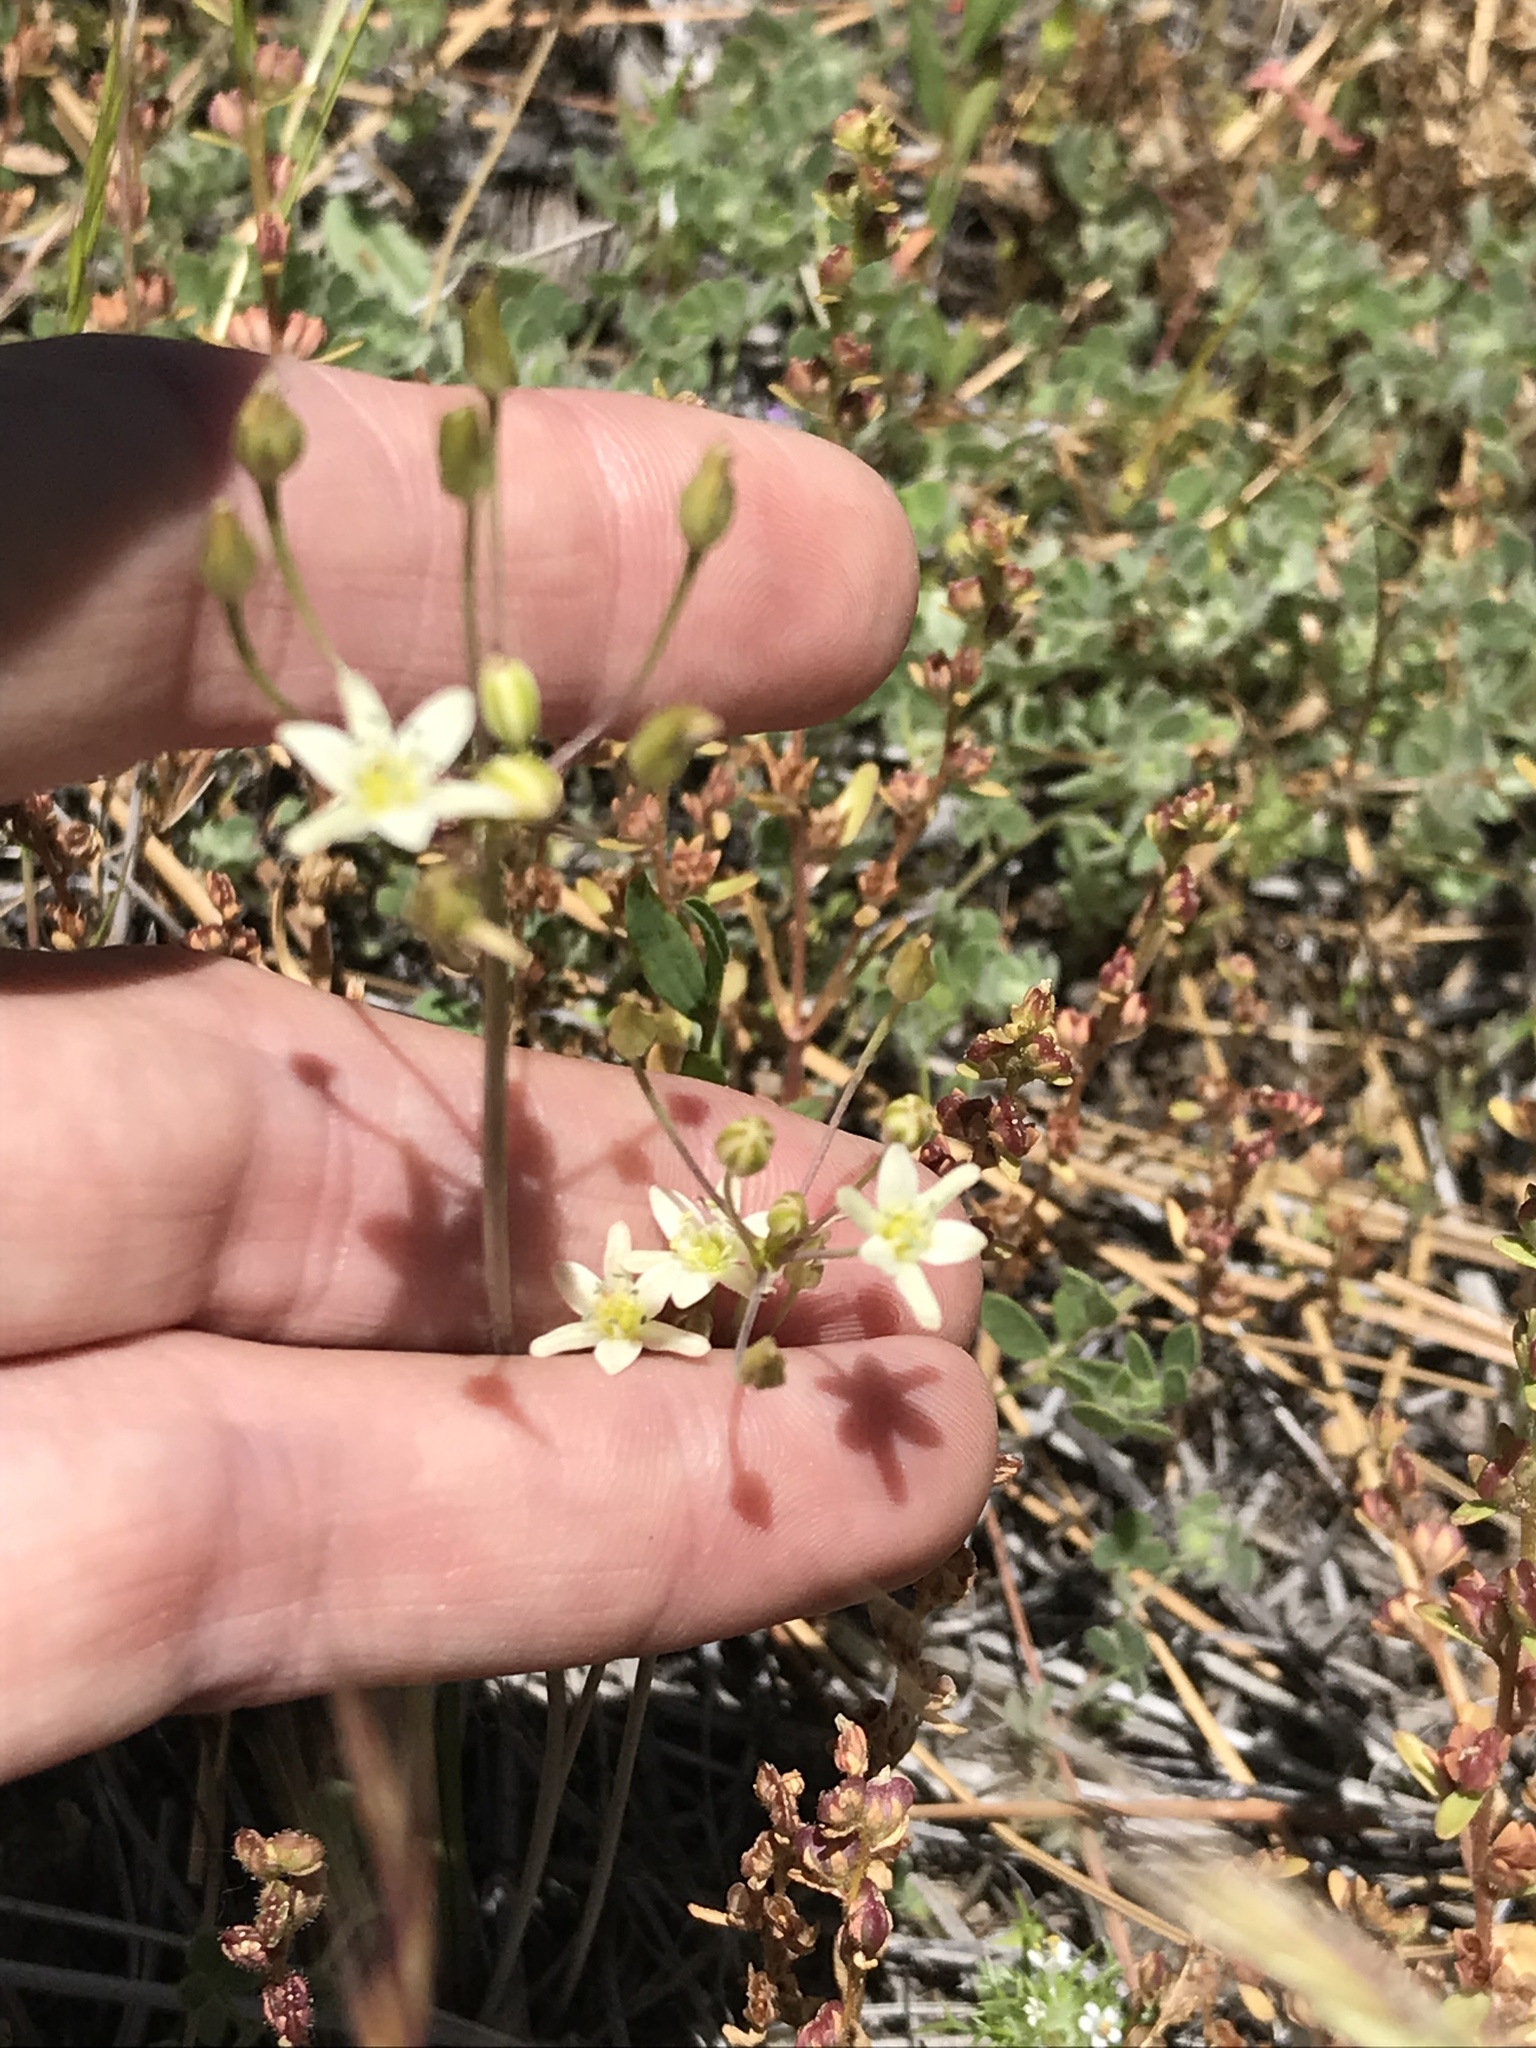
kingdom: Plantae
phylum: Tracheophyta
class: Liliopsida
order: Asparagales
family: Asparagaceae
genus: Muilla
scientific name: Muilla maritima
